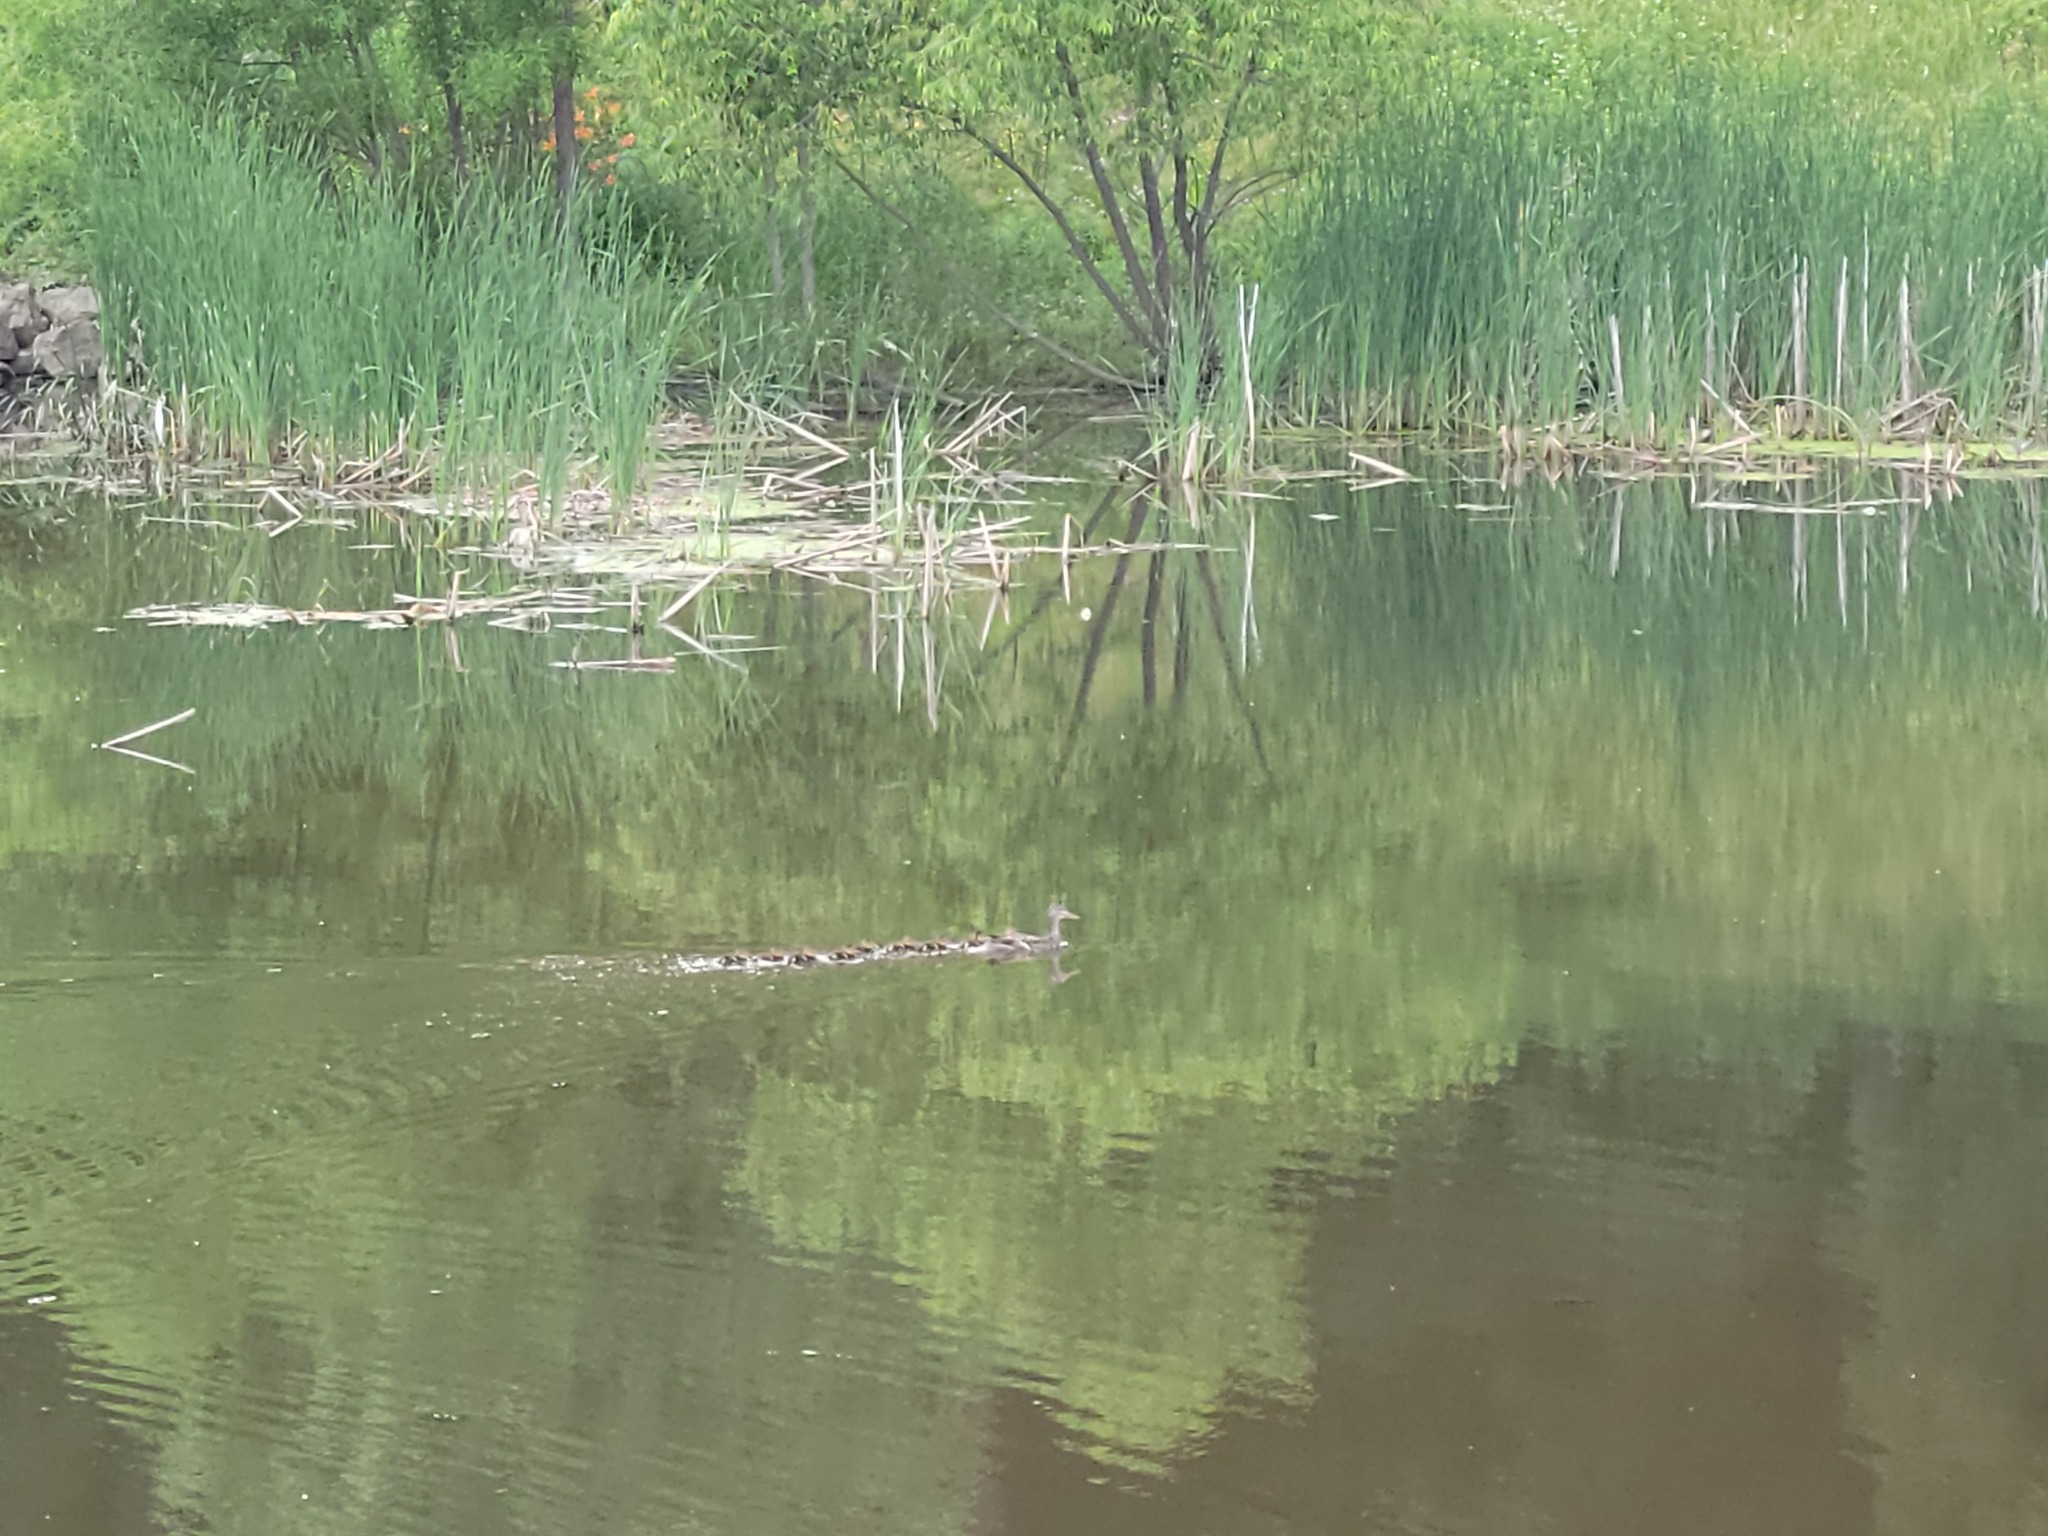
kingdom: Animalia
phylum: Chordata
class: Aves
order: Anseriformes
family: Anatidae
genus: Anas
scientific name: Anas platyrhynchos
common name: Mallard
